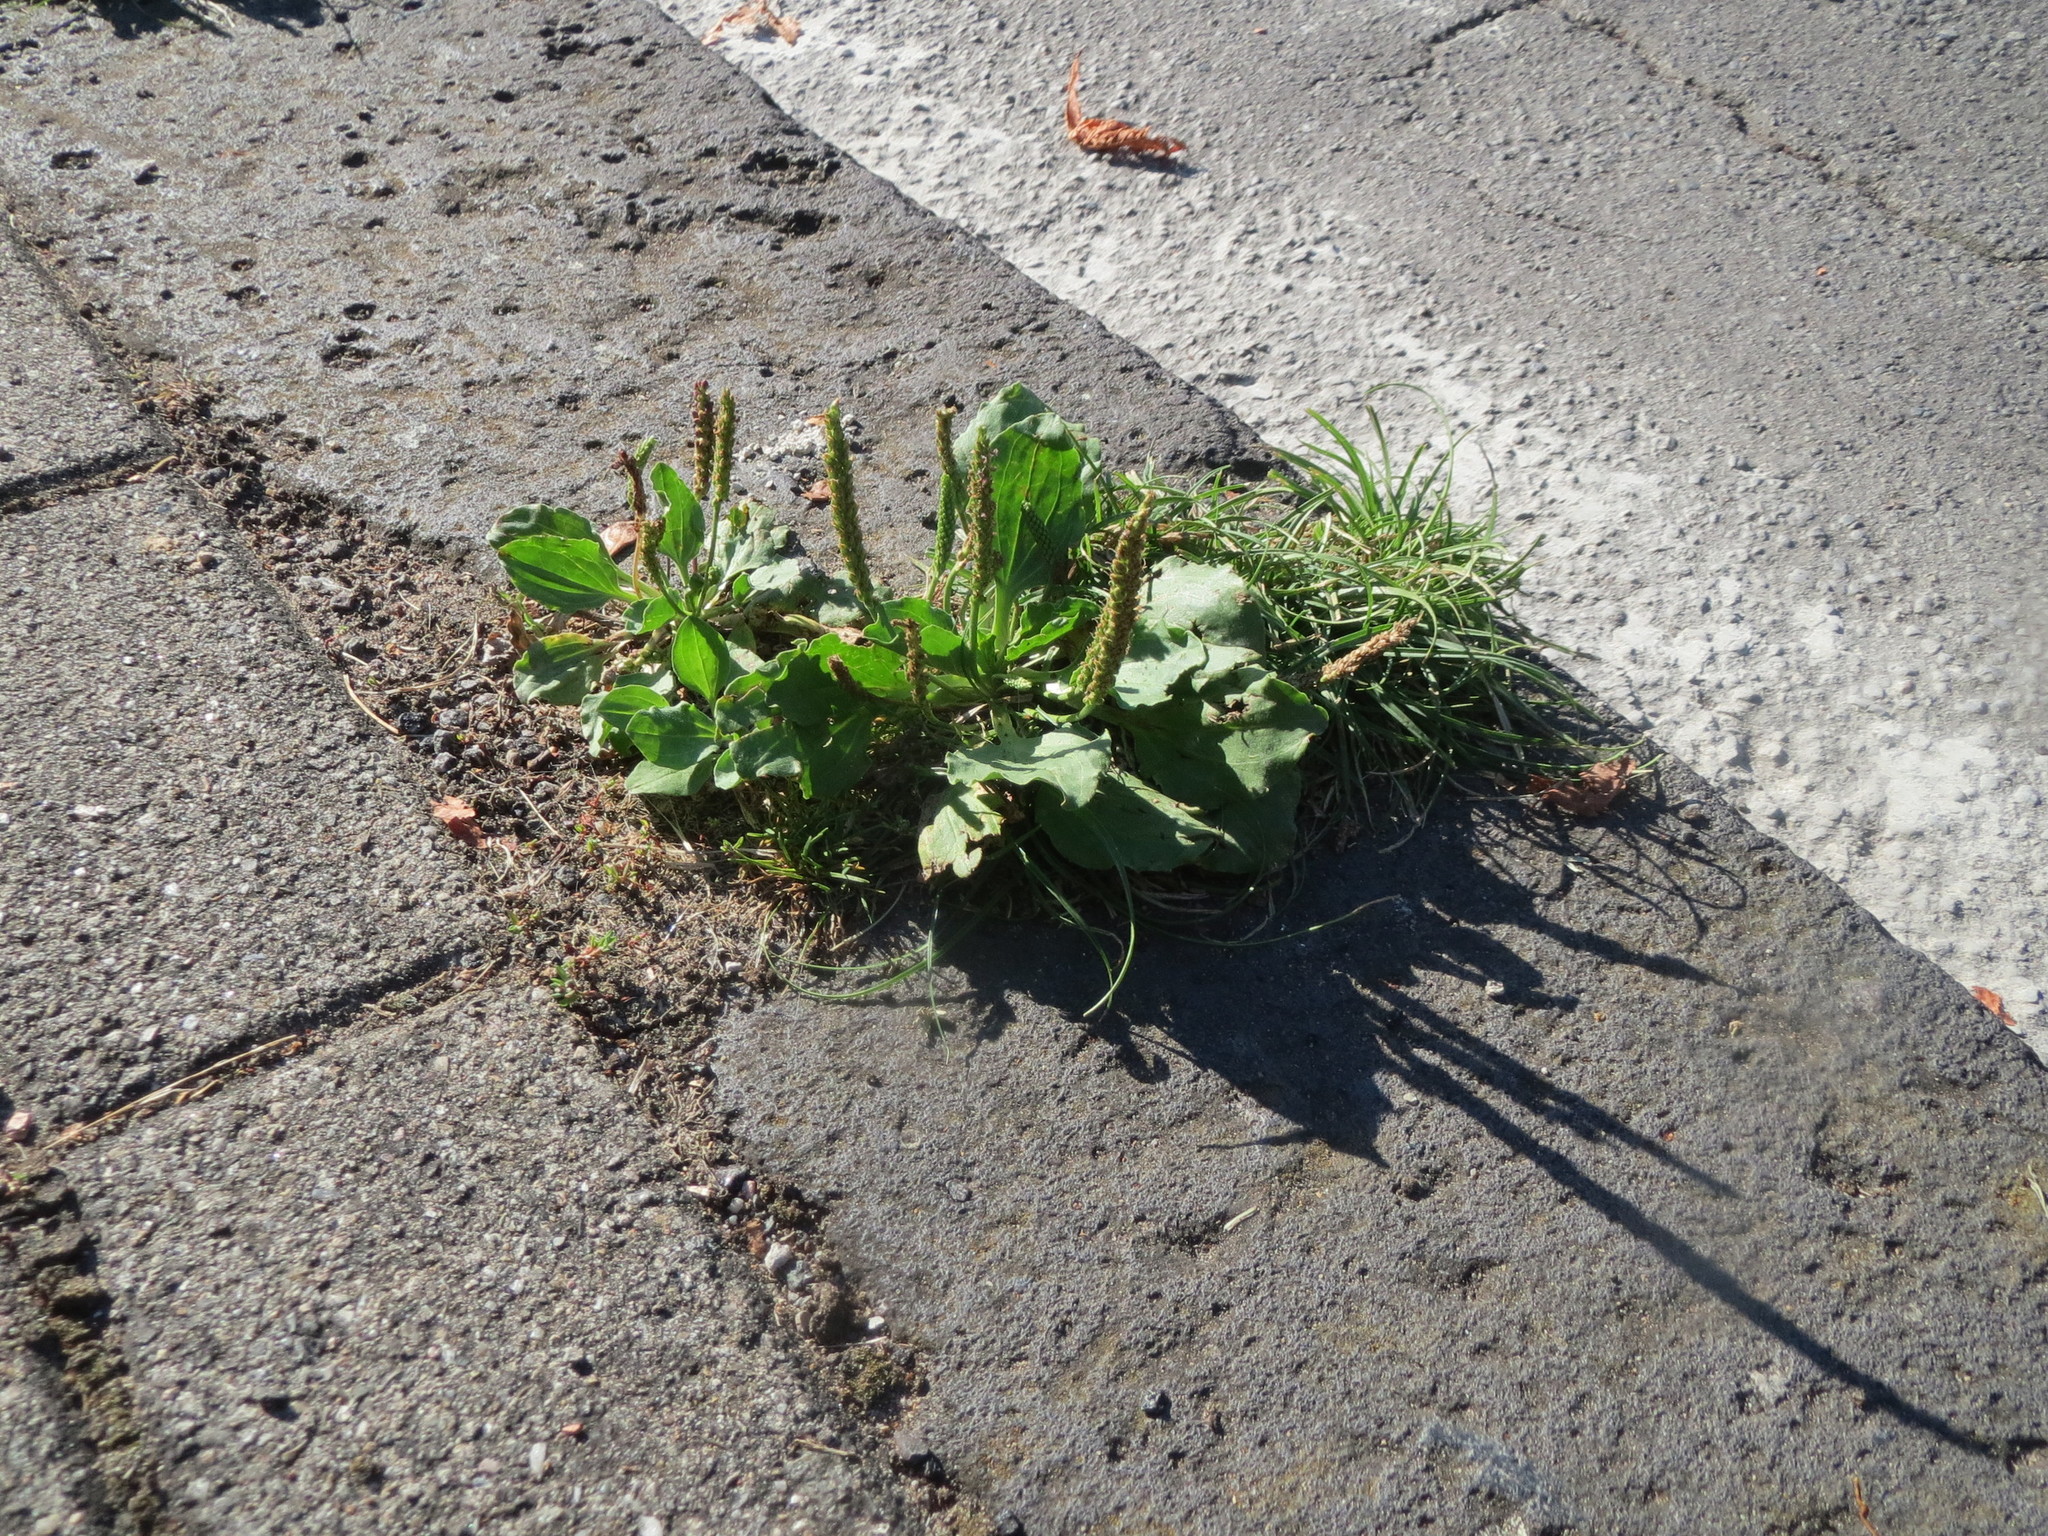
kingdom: Plantae
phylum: Tracheophyta
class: Magnoliopsida
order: Lamiales
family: Plantaginaceae
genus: Plantago
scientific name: Plantago major
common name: Common plantain
